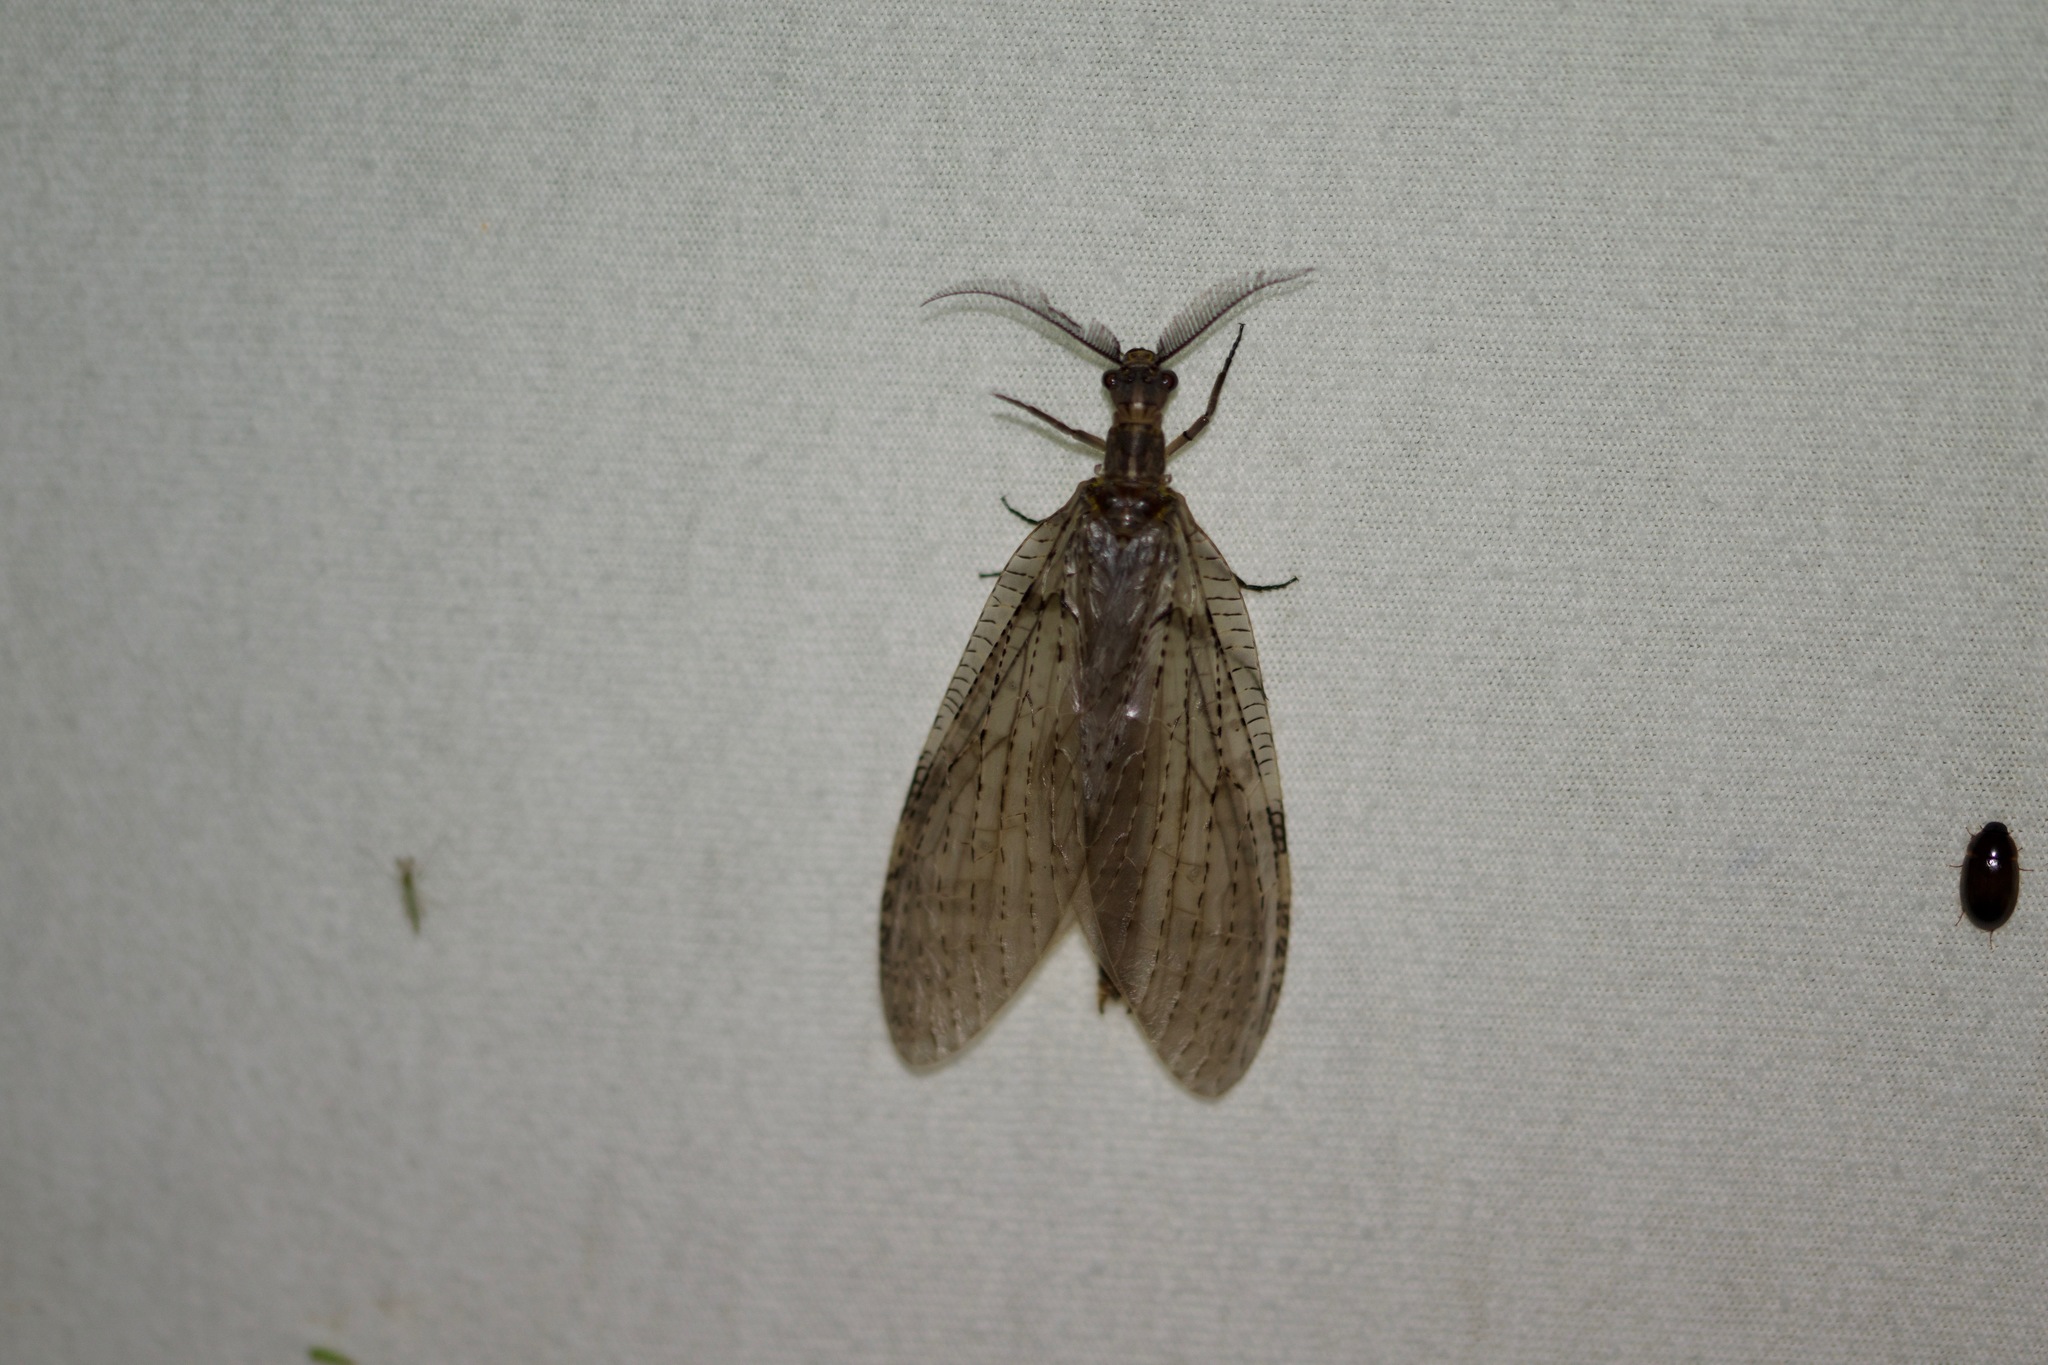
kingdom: Animalia
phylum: Arthropoda
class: Insecta
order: Megaloptera
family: Corydalidae
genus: Chauliodes
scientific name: Chauliodes pectinicornis
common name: Summer fishfly
